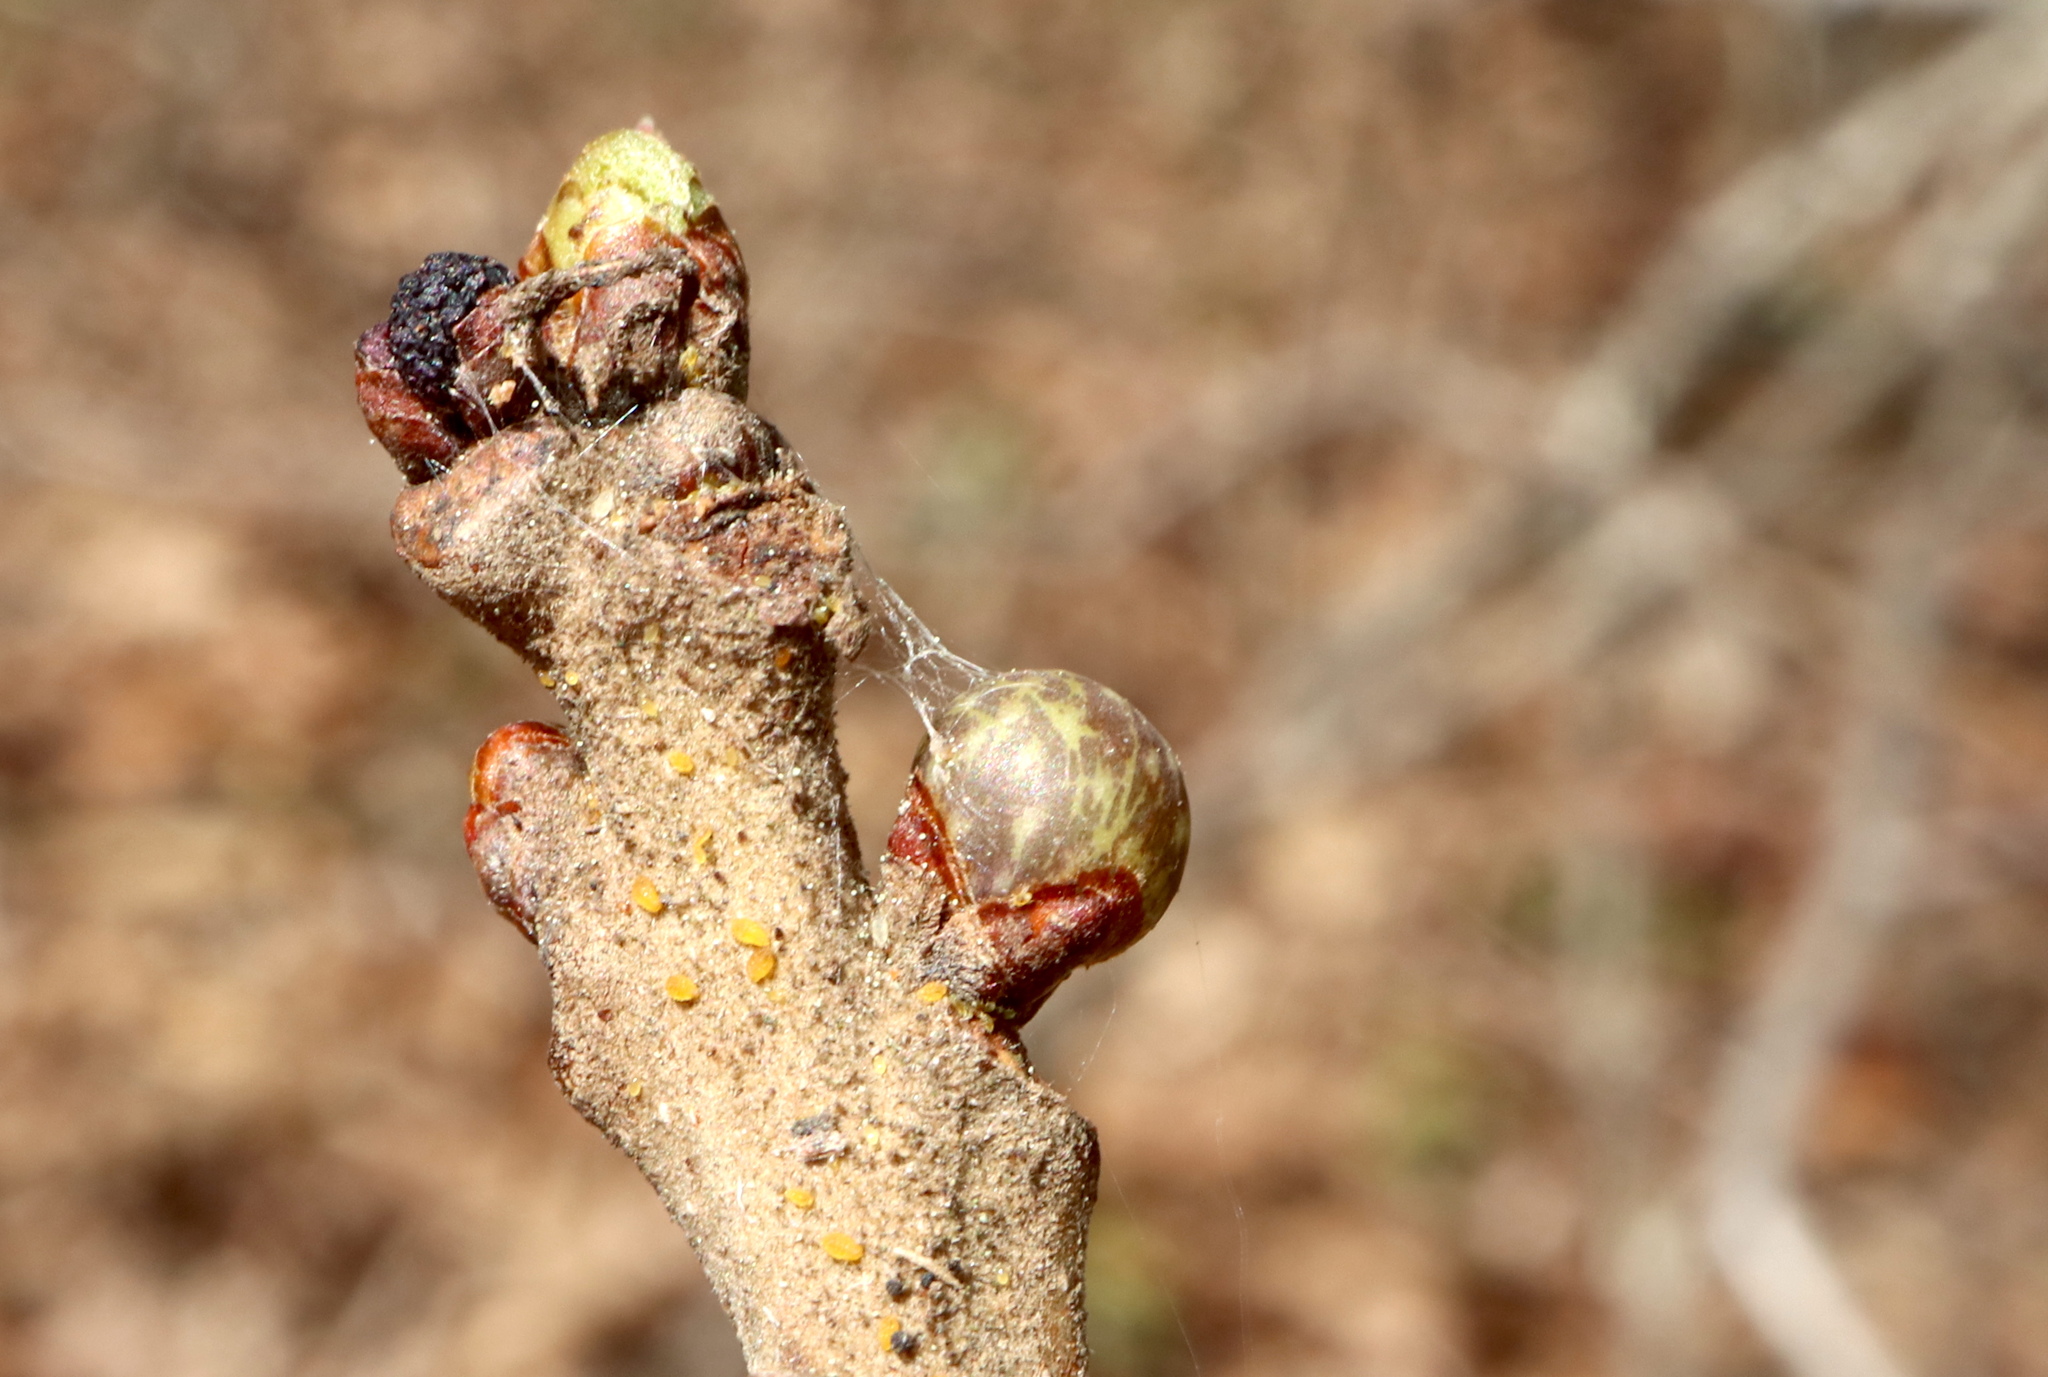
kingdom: Animalia
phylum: Arthropoda
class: Insecta
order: Hymenoptera
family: Cynipidae
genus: Neuroterus
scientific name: Neuroterus
